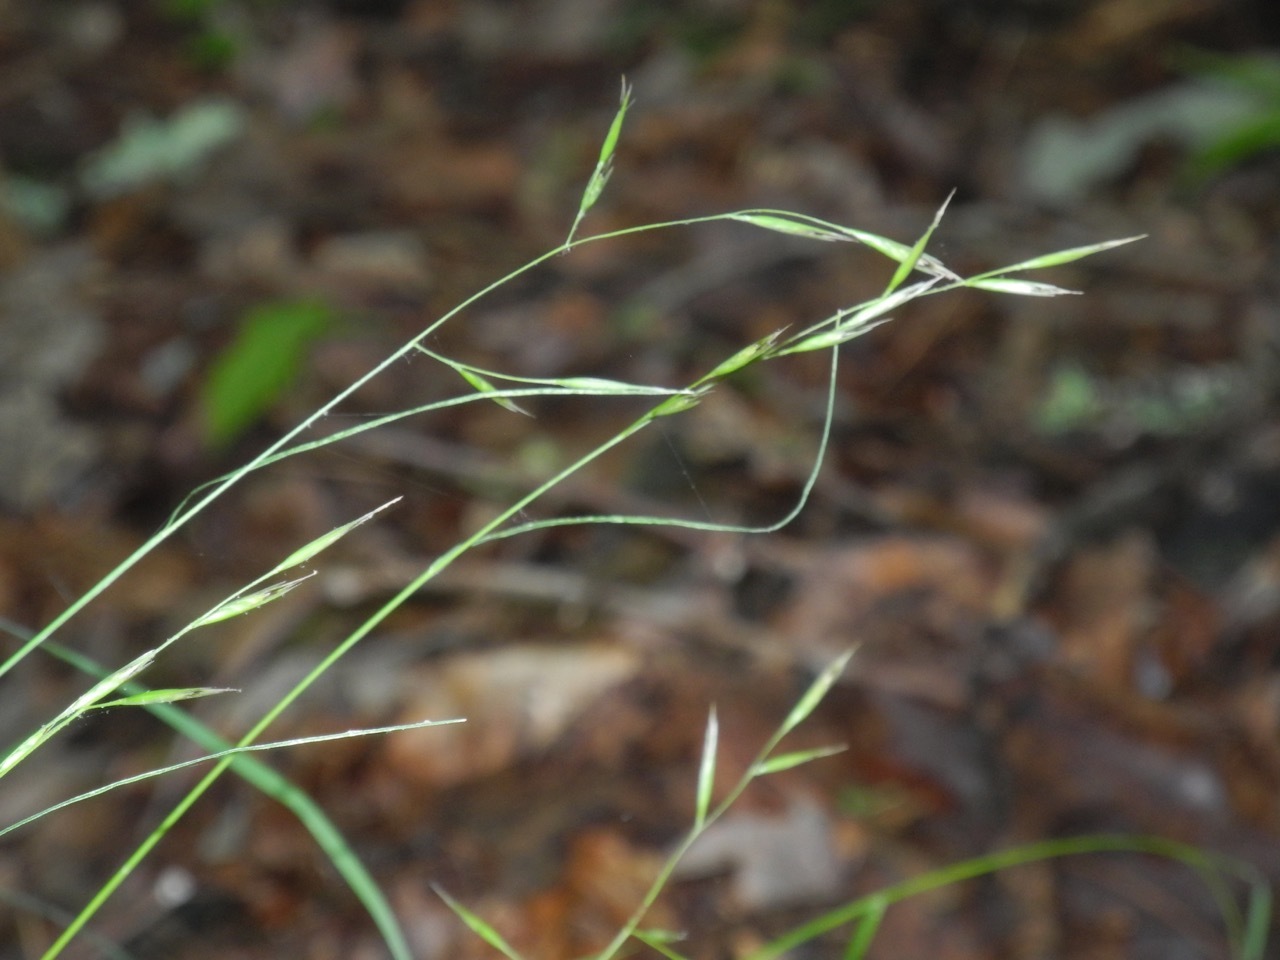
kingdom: Plantae
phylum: Tracheophyta
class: Liliopsida
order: Poales
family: Poaceae
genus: Danthonia
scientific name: Danthonia spicata
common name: Common wild oatgrass
